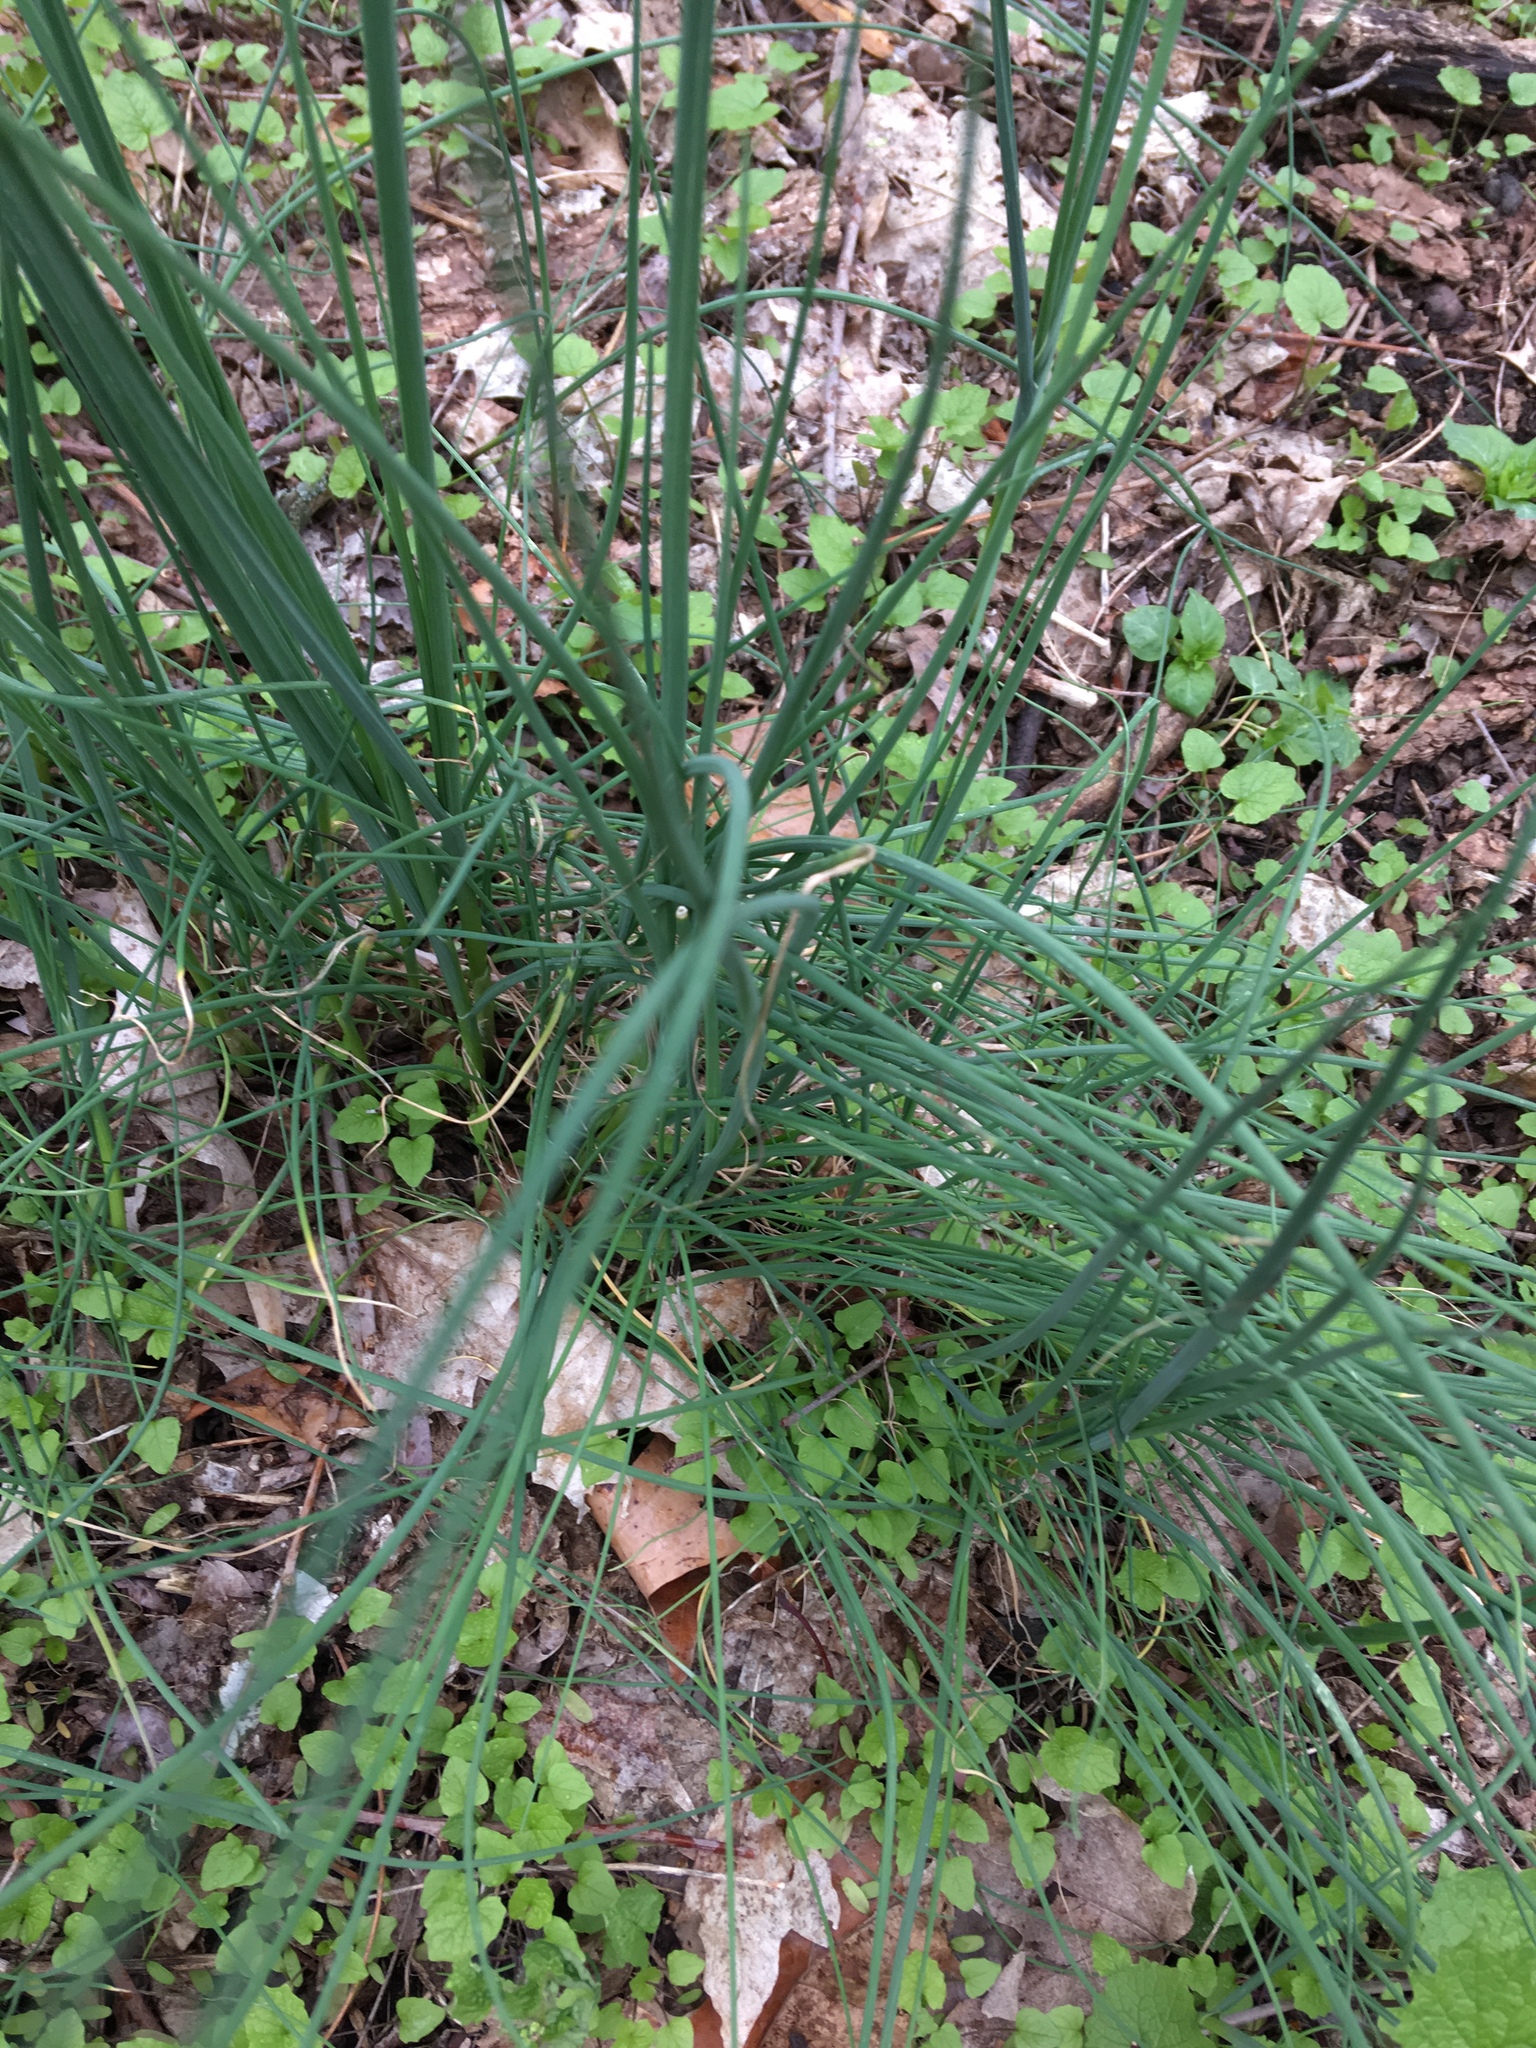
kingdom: Plantae
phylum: Tracheophyta
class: Liliopsida
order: Asparagales
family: Amaryllidaceae
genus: Allium
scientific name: Allium vineale
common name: Crow garlic
